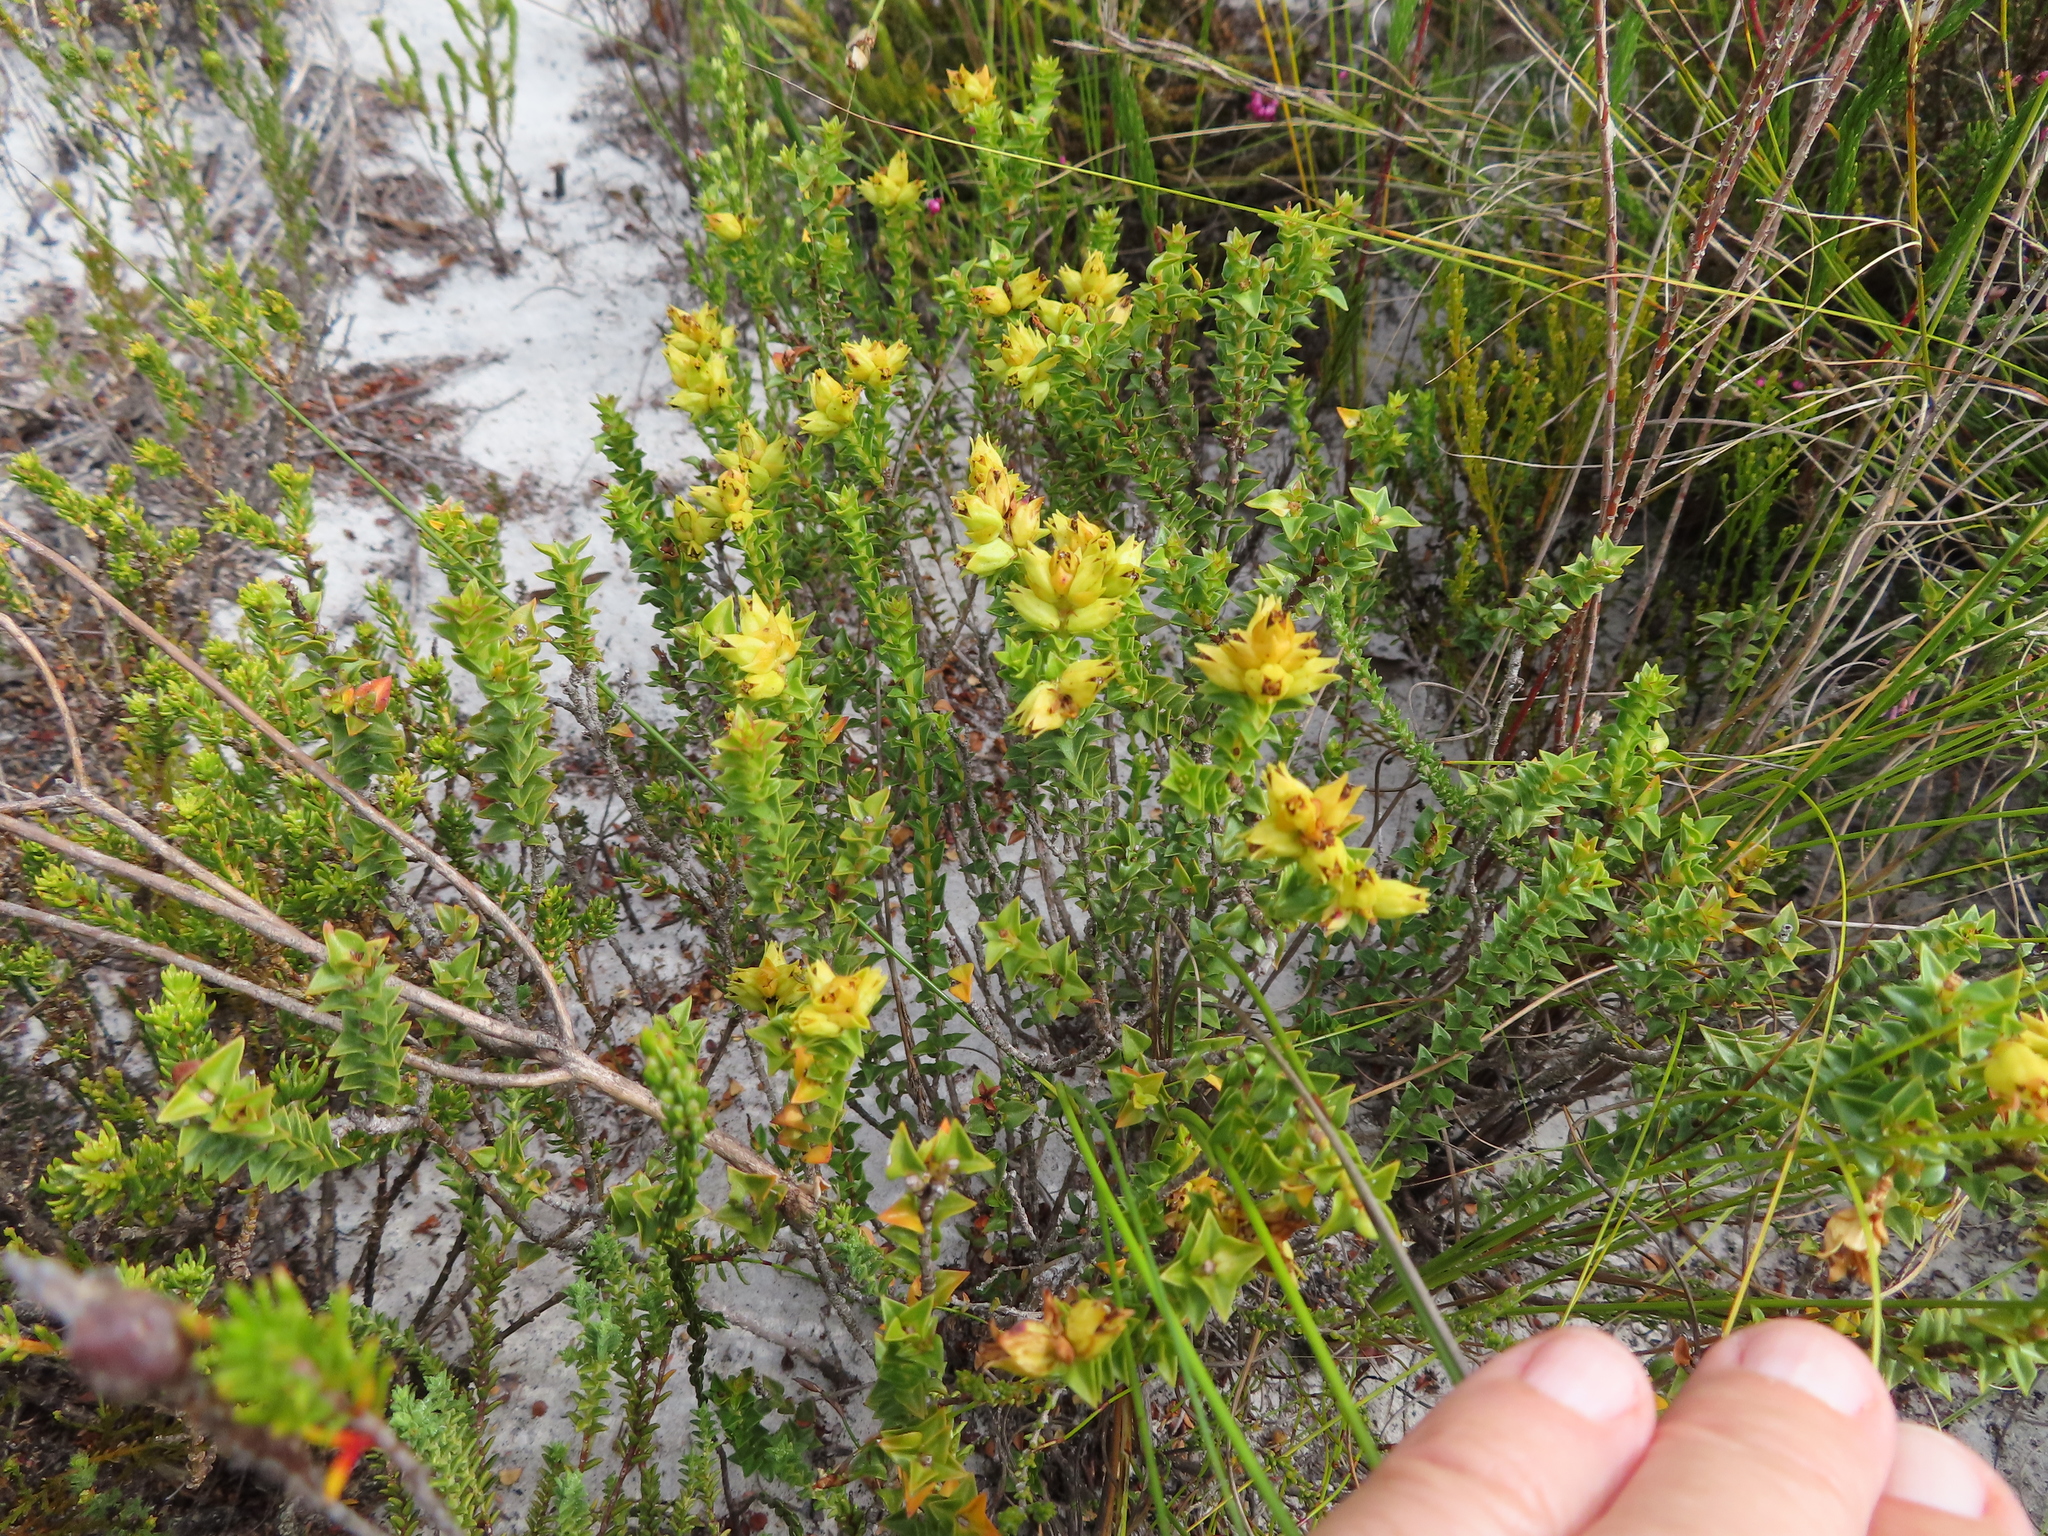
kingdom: Plantae
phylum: Tracheophyta
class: Magnoliopsida
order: Myrtales
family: Penaeaceae
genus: Penaea
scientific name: Penaea mucronata
